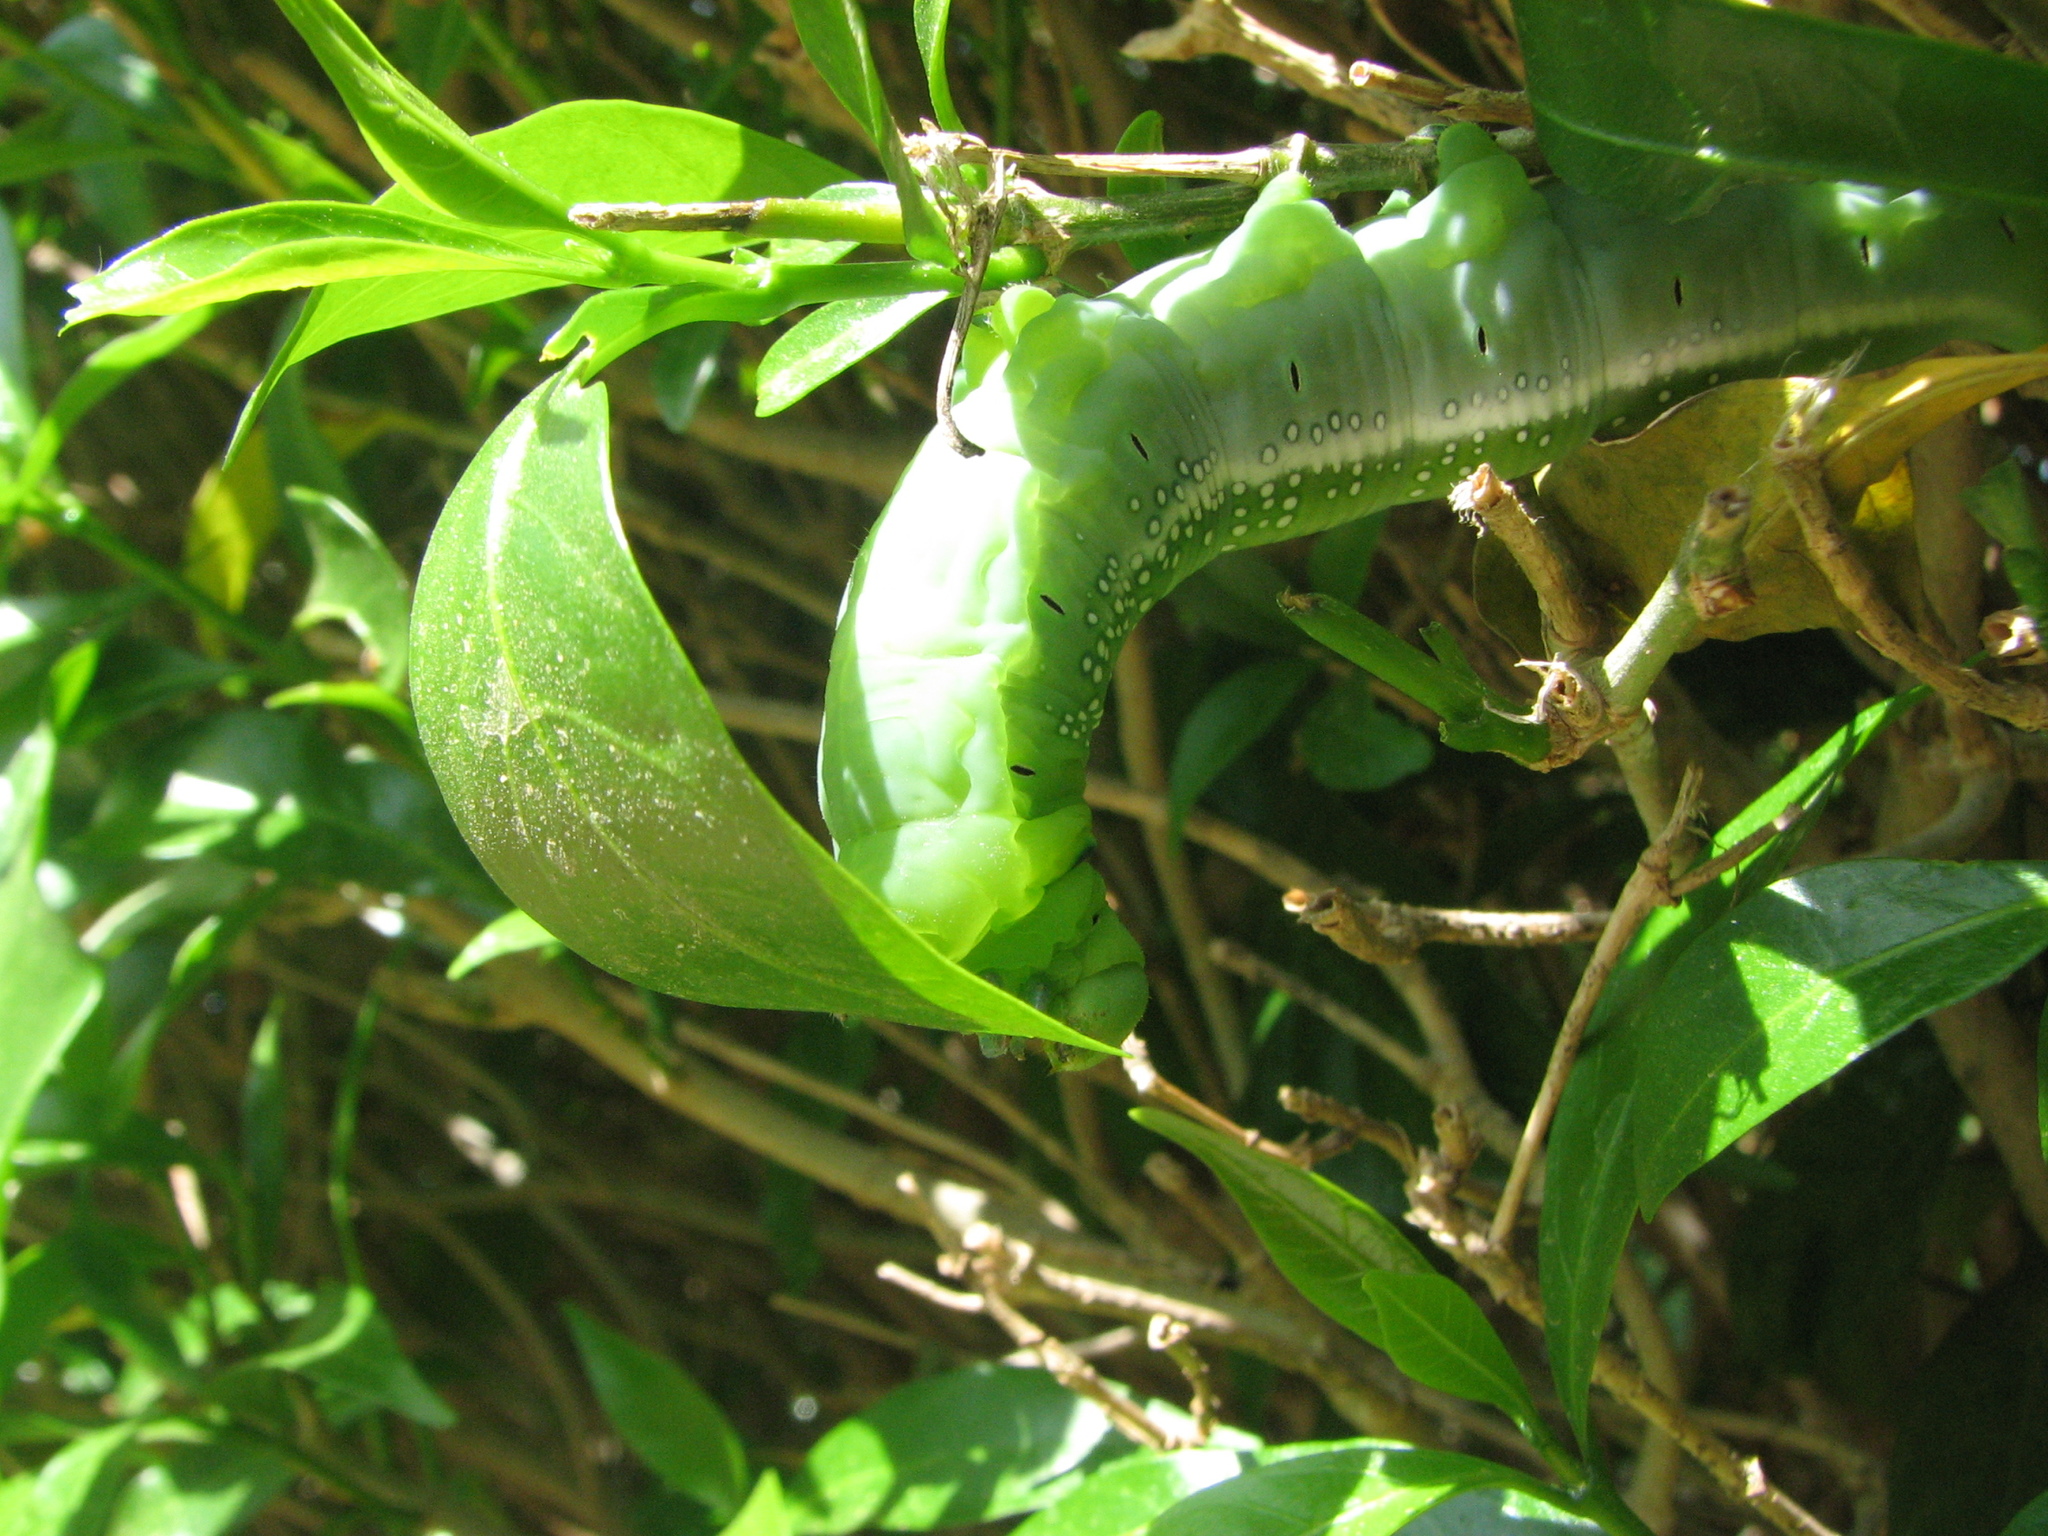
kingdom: Animalia
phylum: Arthropoda
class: Insecta
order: Lepidoptera
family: Sphingidae
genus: Daphnis
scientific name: Daphnis nerii
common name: Oleander hawk-moth
